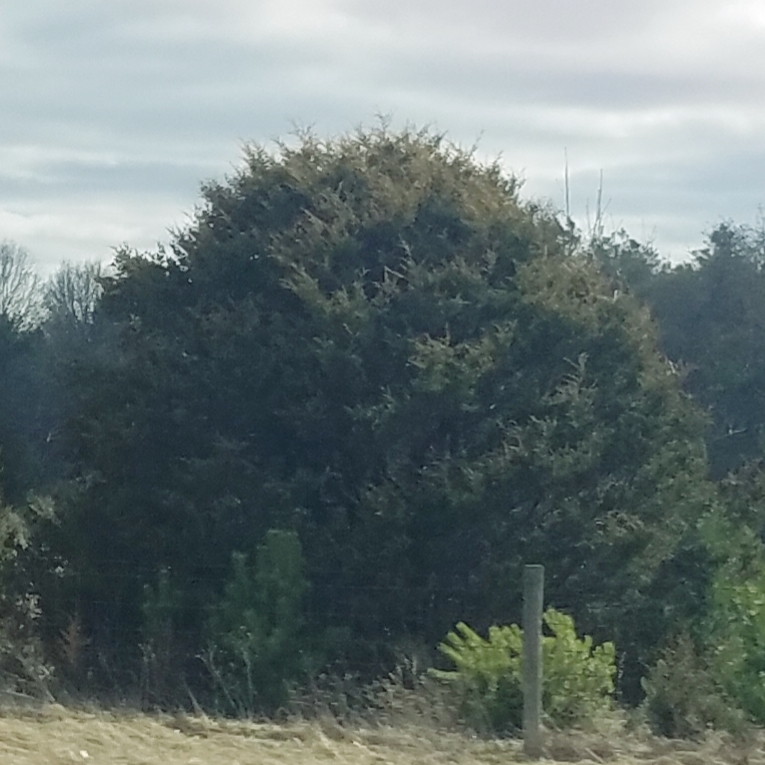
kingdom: Plantae
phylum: Tracheophyta
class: Pinopsida
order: Pinales
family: Cupressaceae
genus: Juniperus
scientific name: Juniperus virginiana
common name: Red juniper
